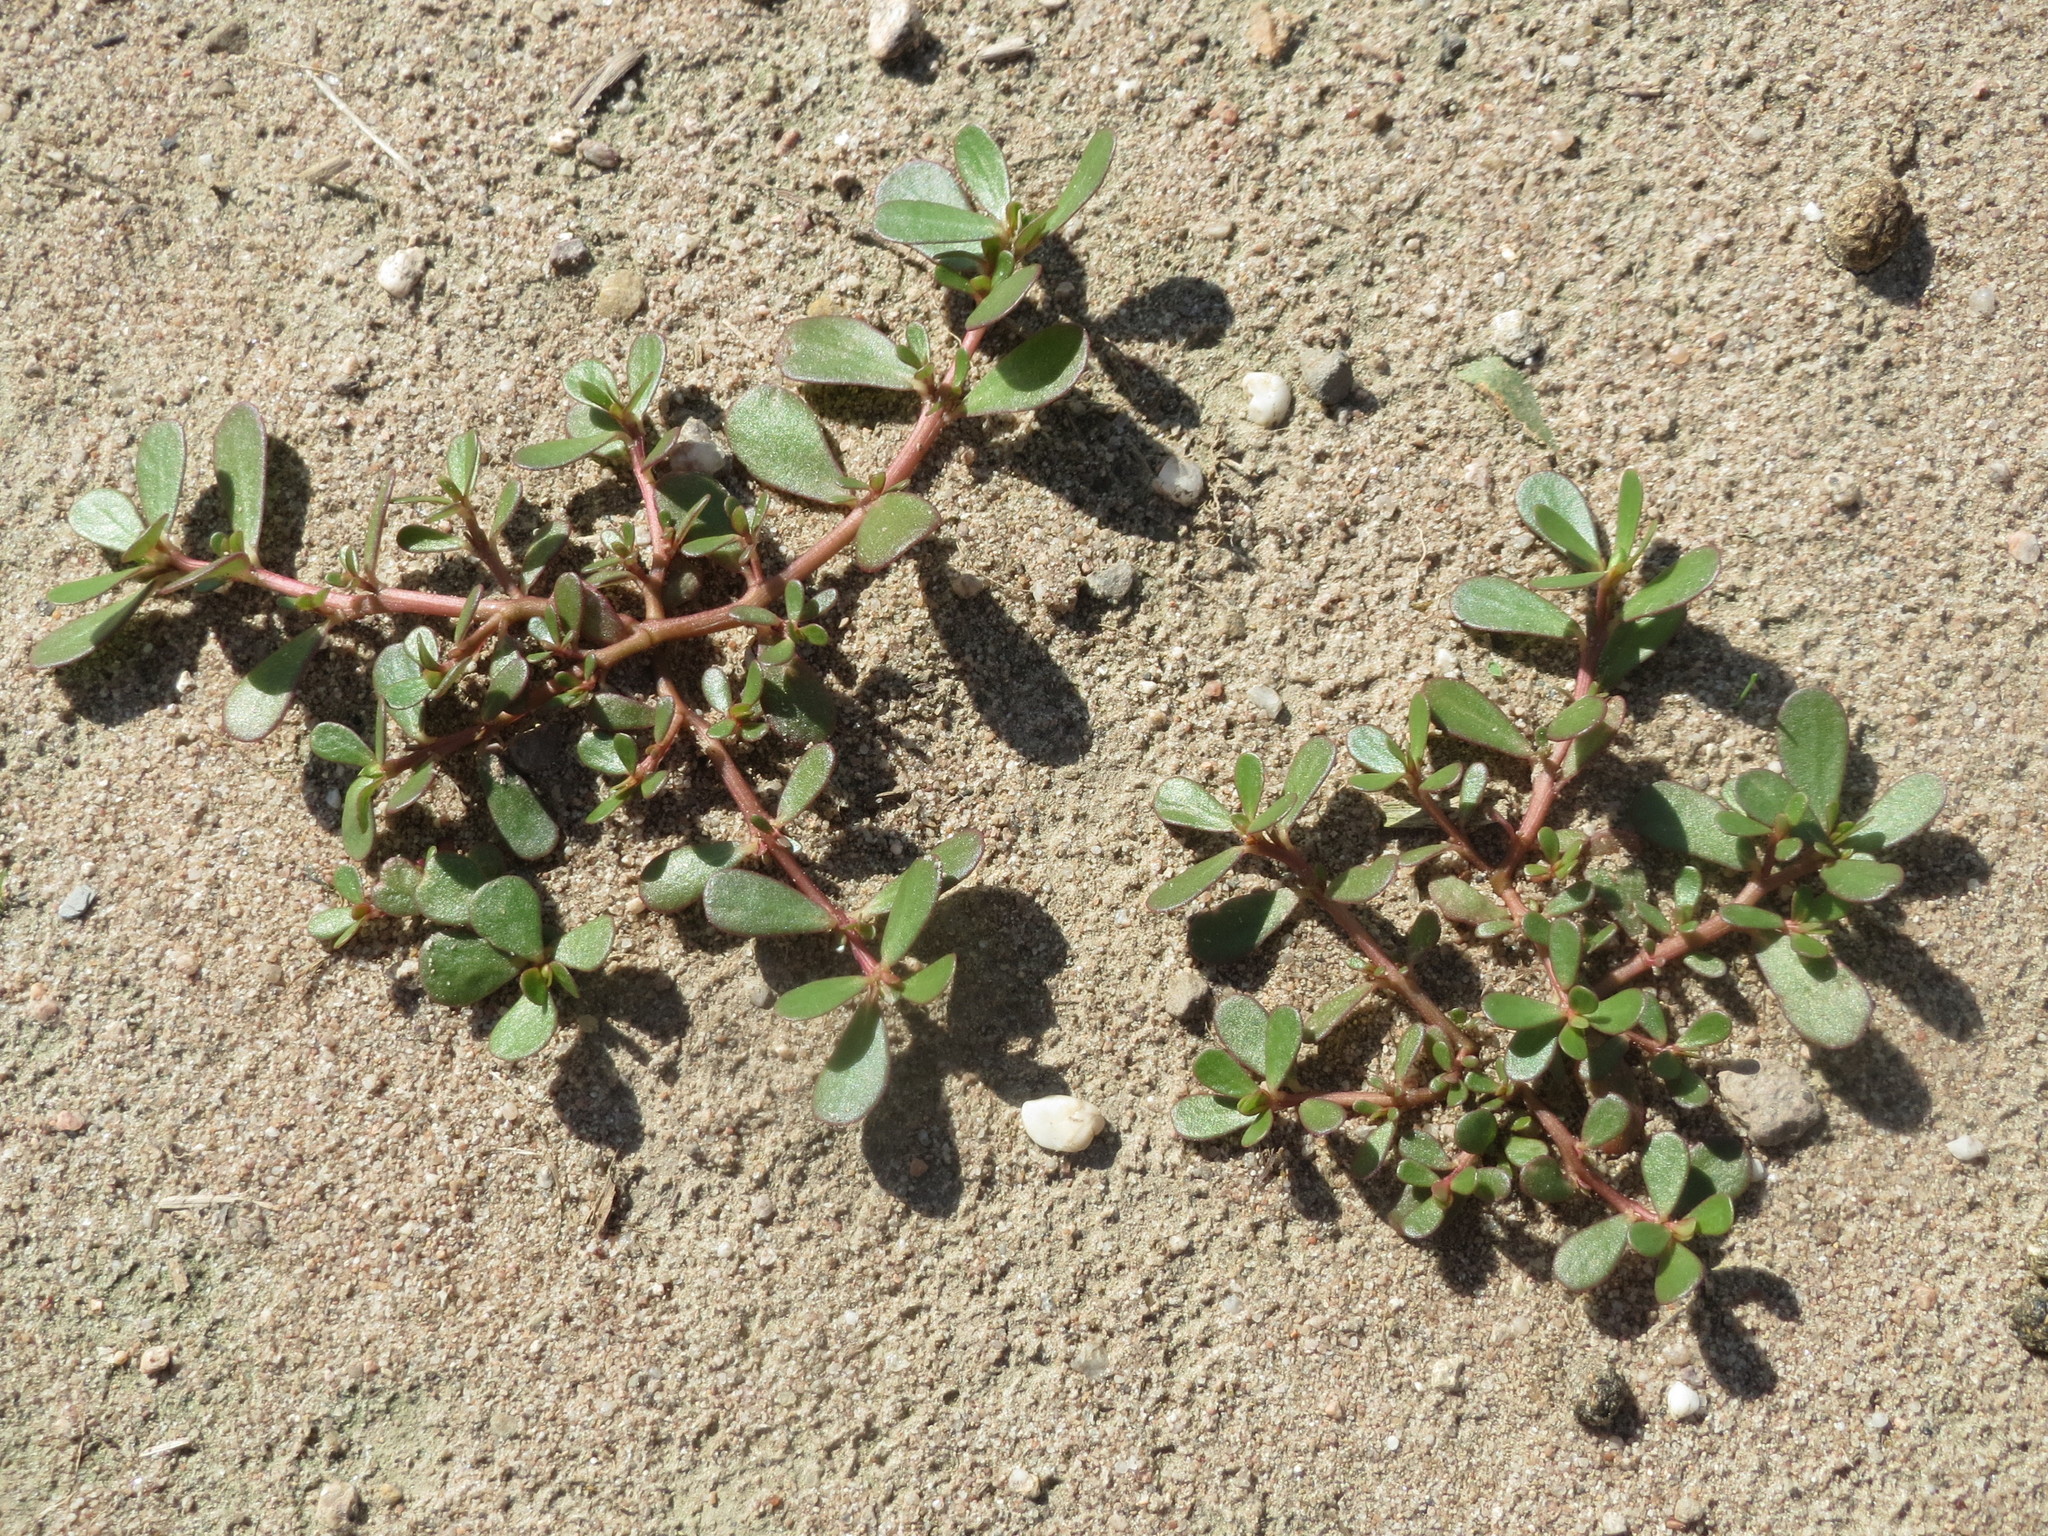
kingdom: Plantae
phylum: Tracheophyta
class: Magnoliopsida
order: Caryophyllales
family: Portulacaceae
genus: Portulaca
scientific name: Portulaca oleracea
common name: Common purslane
